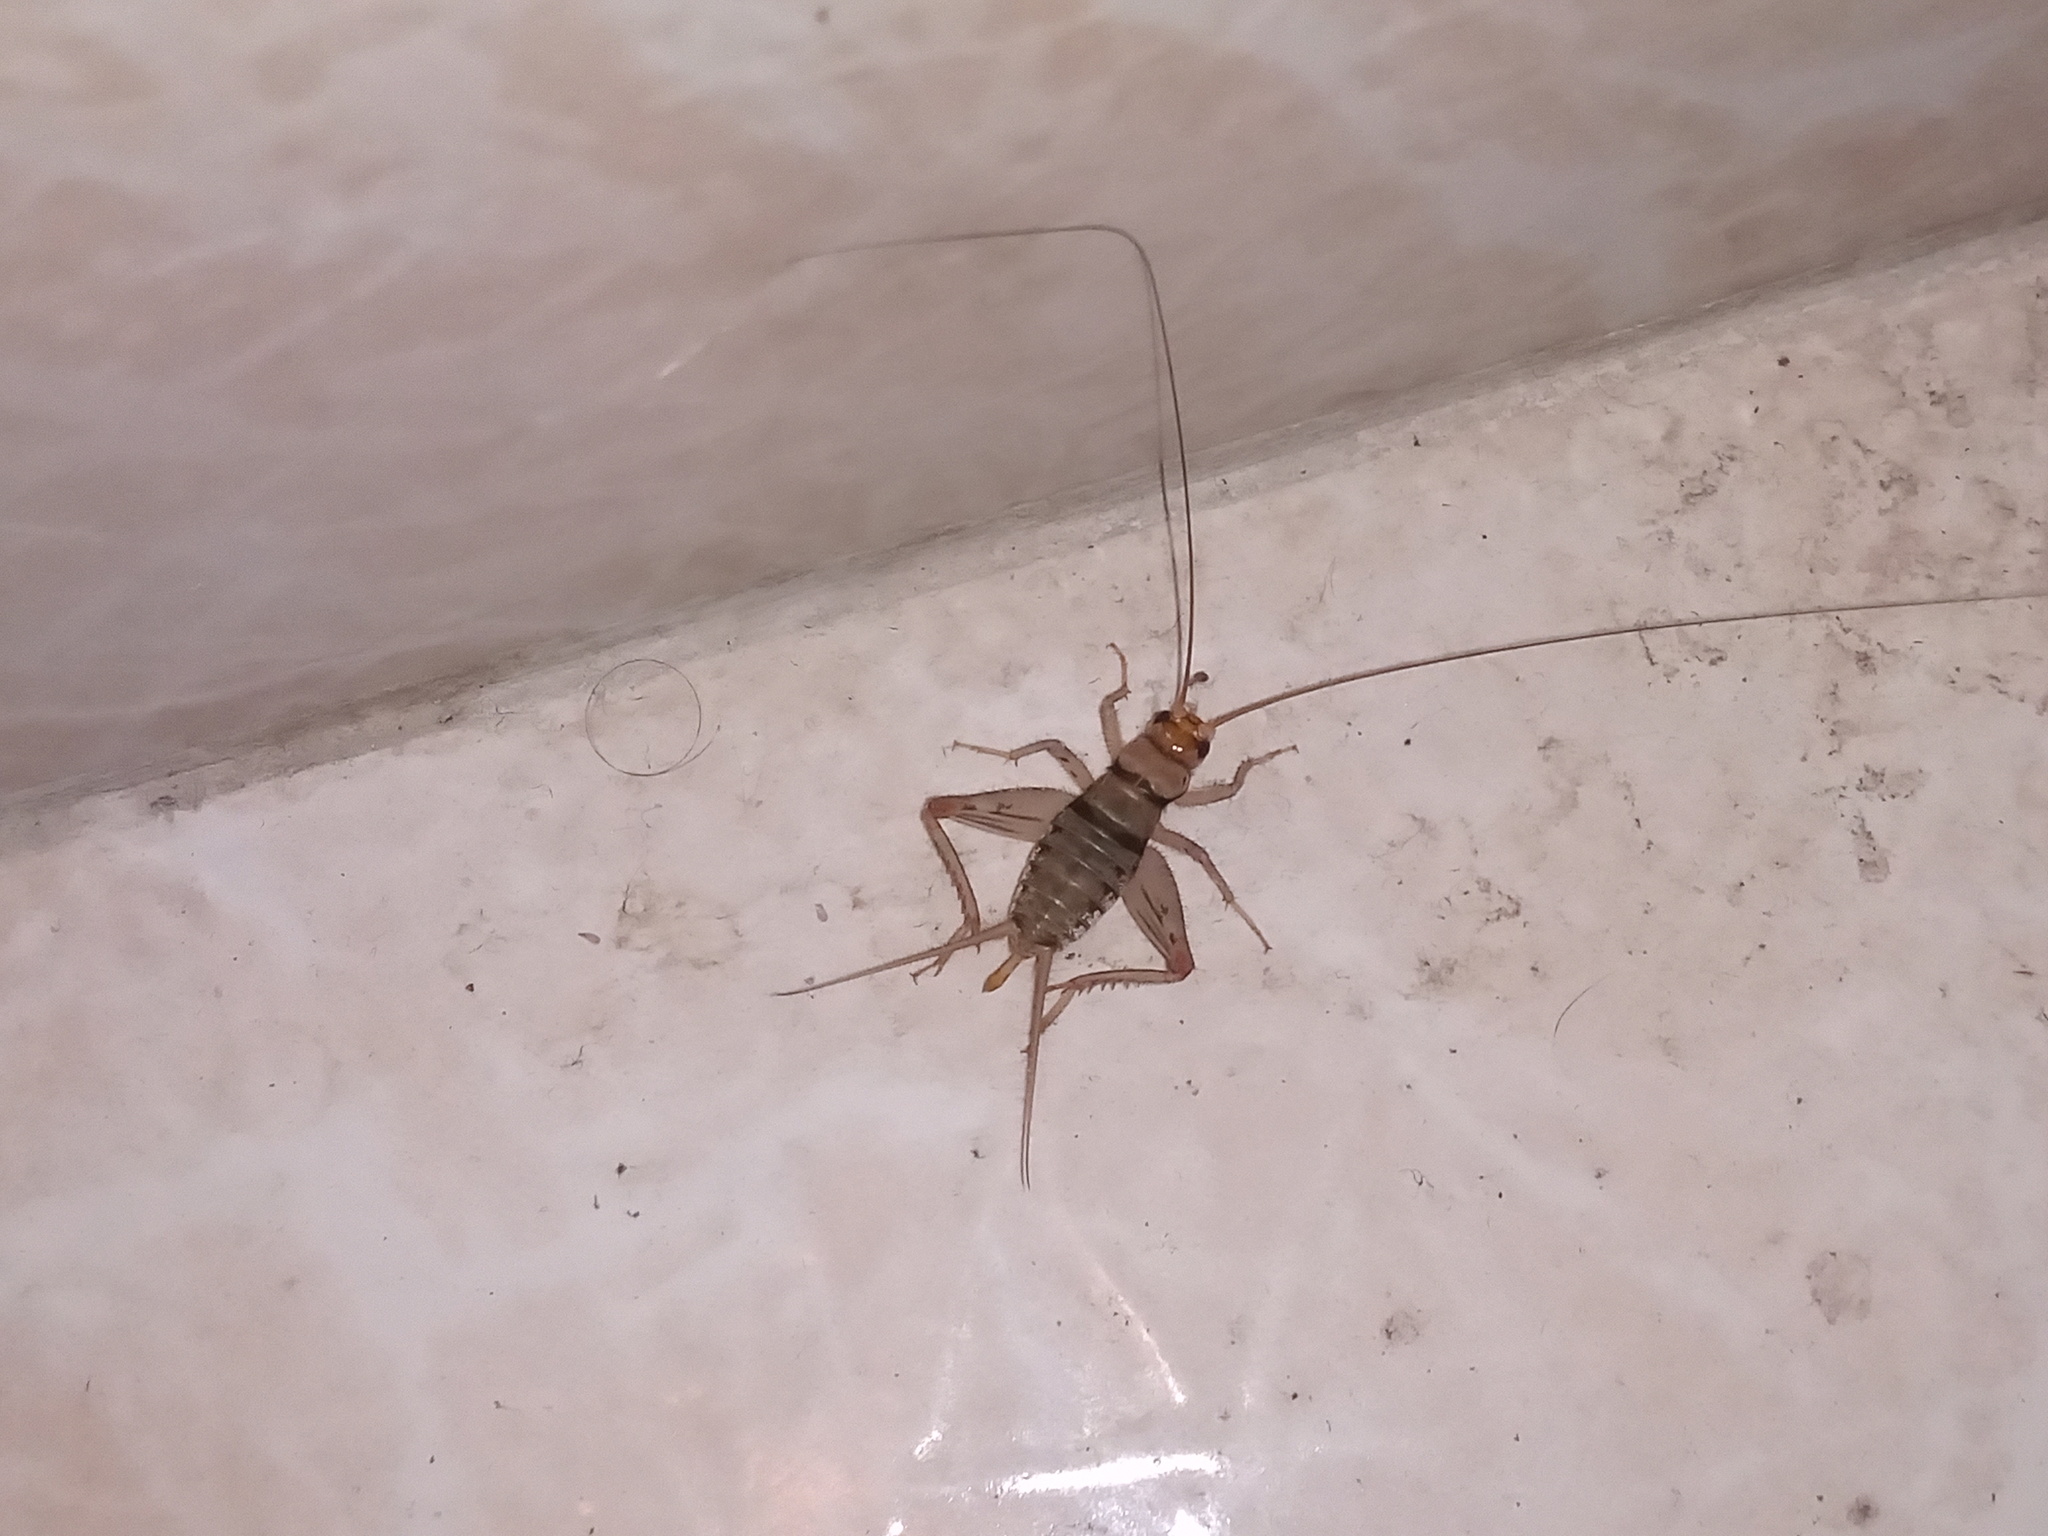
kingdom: Animalia
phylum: Arthropoda
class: Insecta
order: Orthoptera
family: Gryllidae
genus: Gryllodes
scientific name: Gryllodes sigillatus
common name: Tropical house cricket
